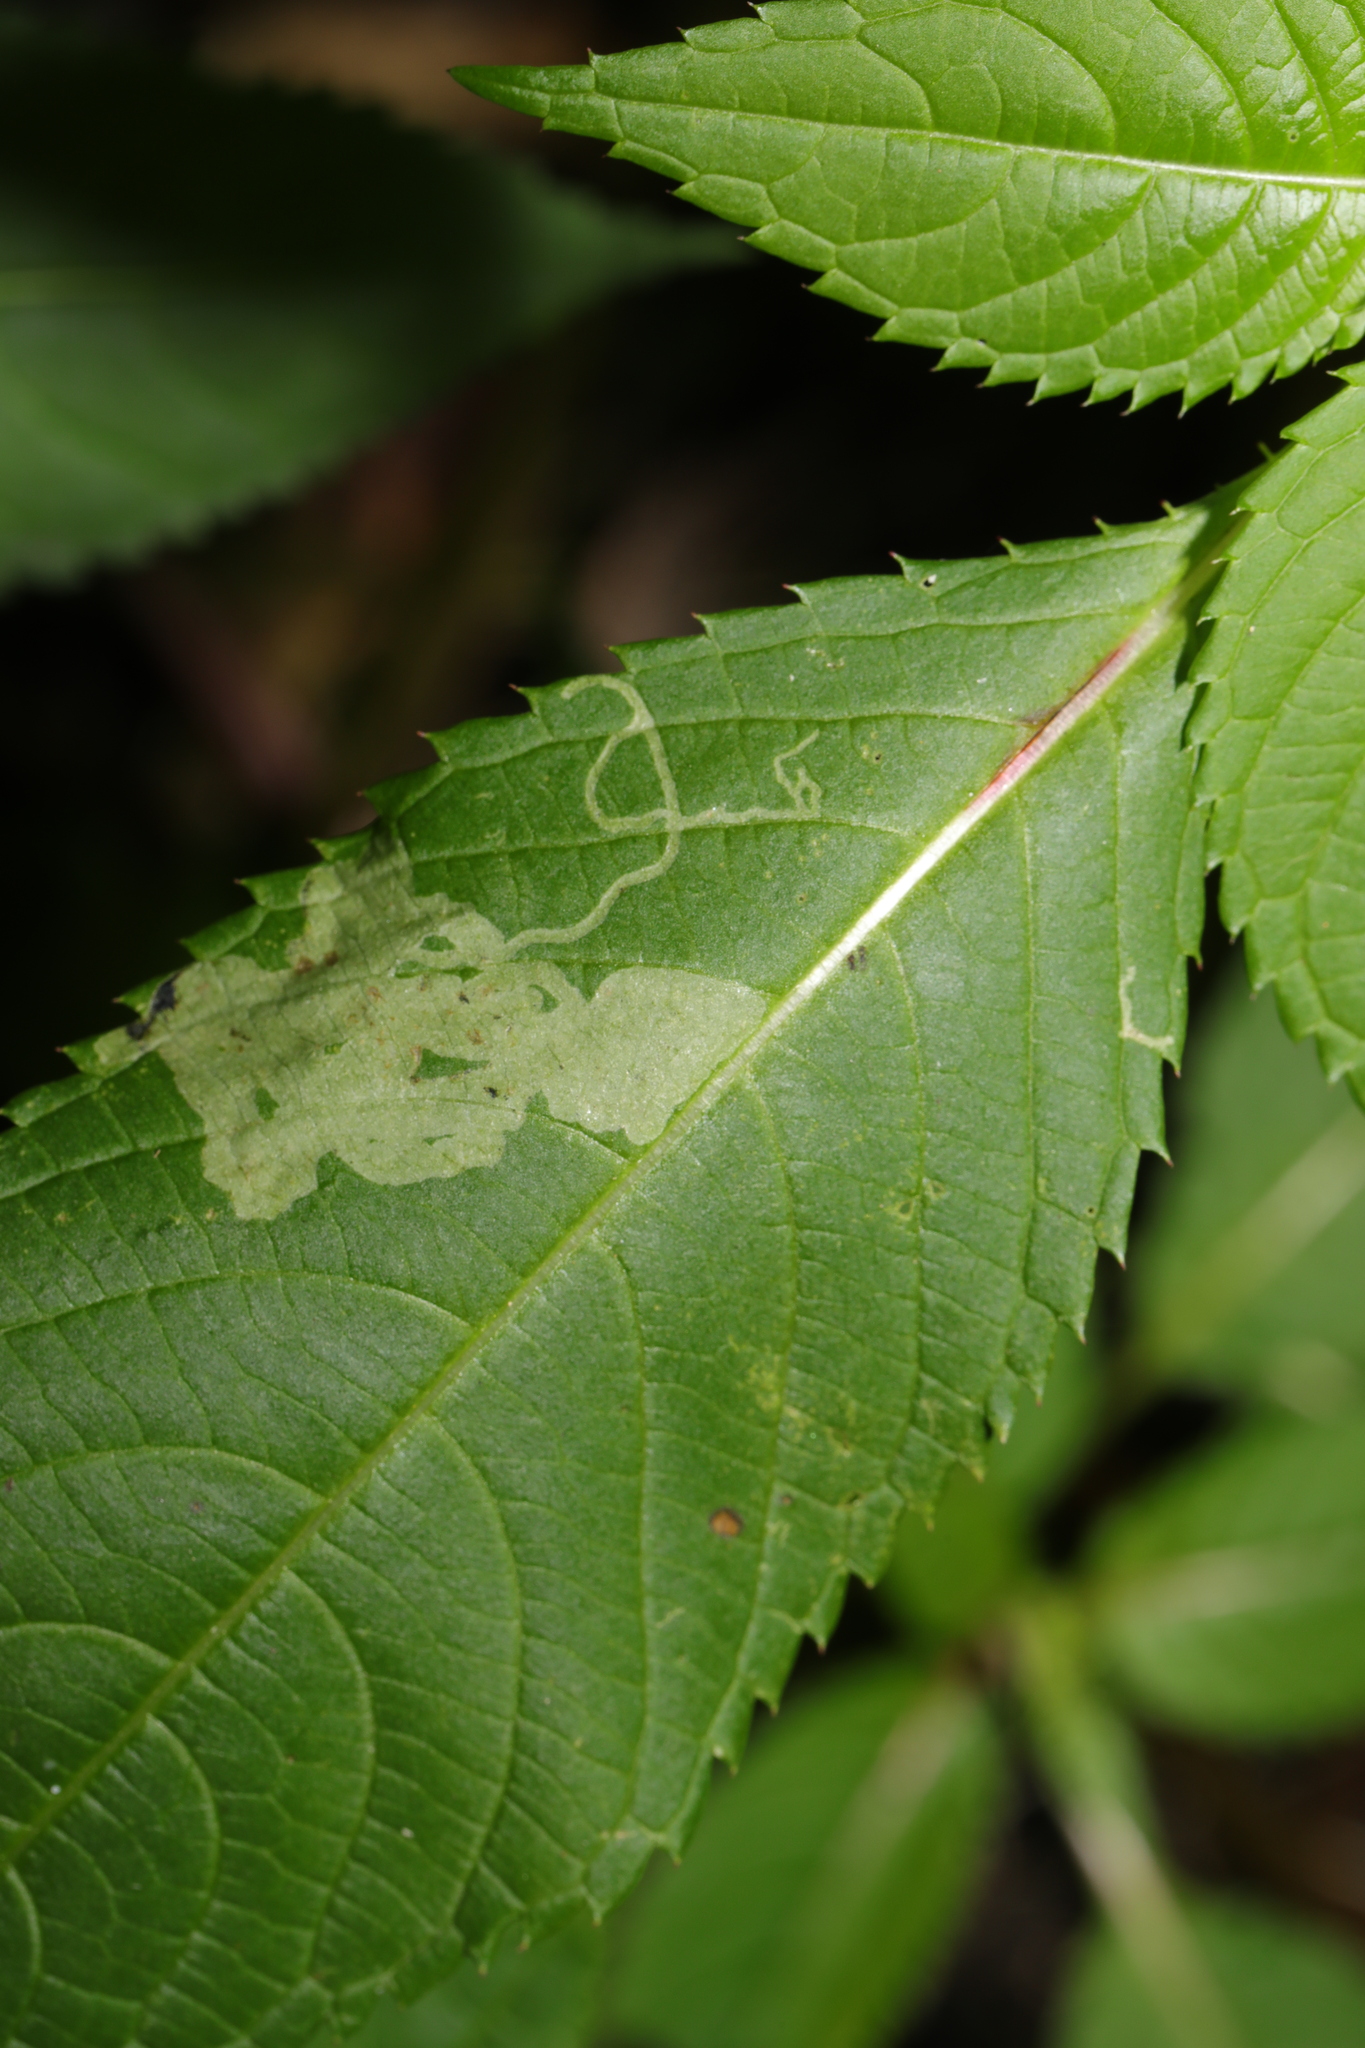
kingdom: Animalia
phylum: Arthropoda
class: Insecta
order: Diptera
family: Agromyzidae
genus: Phytoliriomyza
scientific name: Phytoliriomyza melampyga
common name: Jewelweed leaf-miner fly
